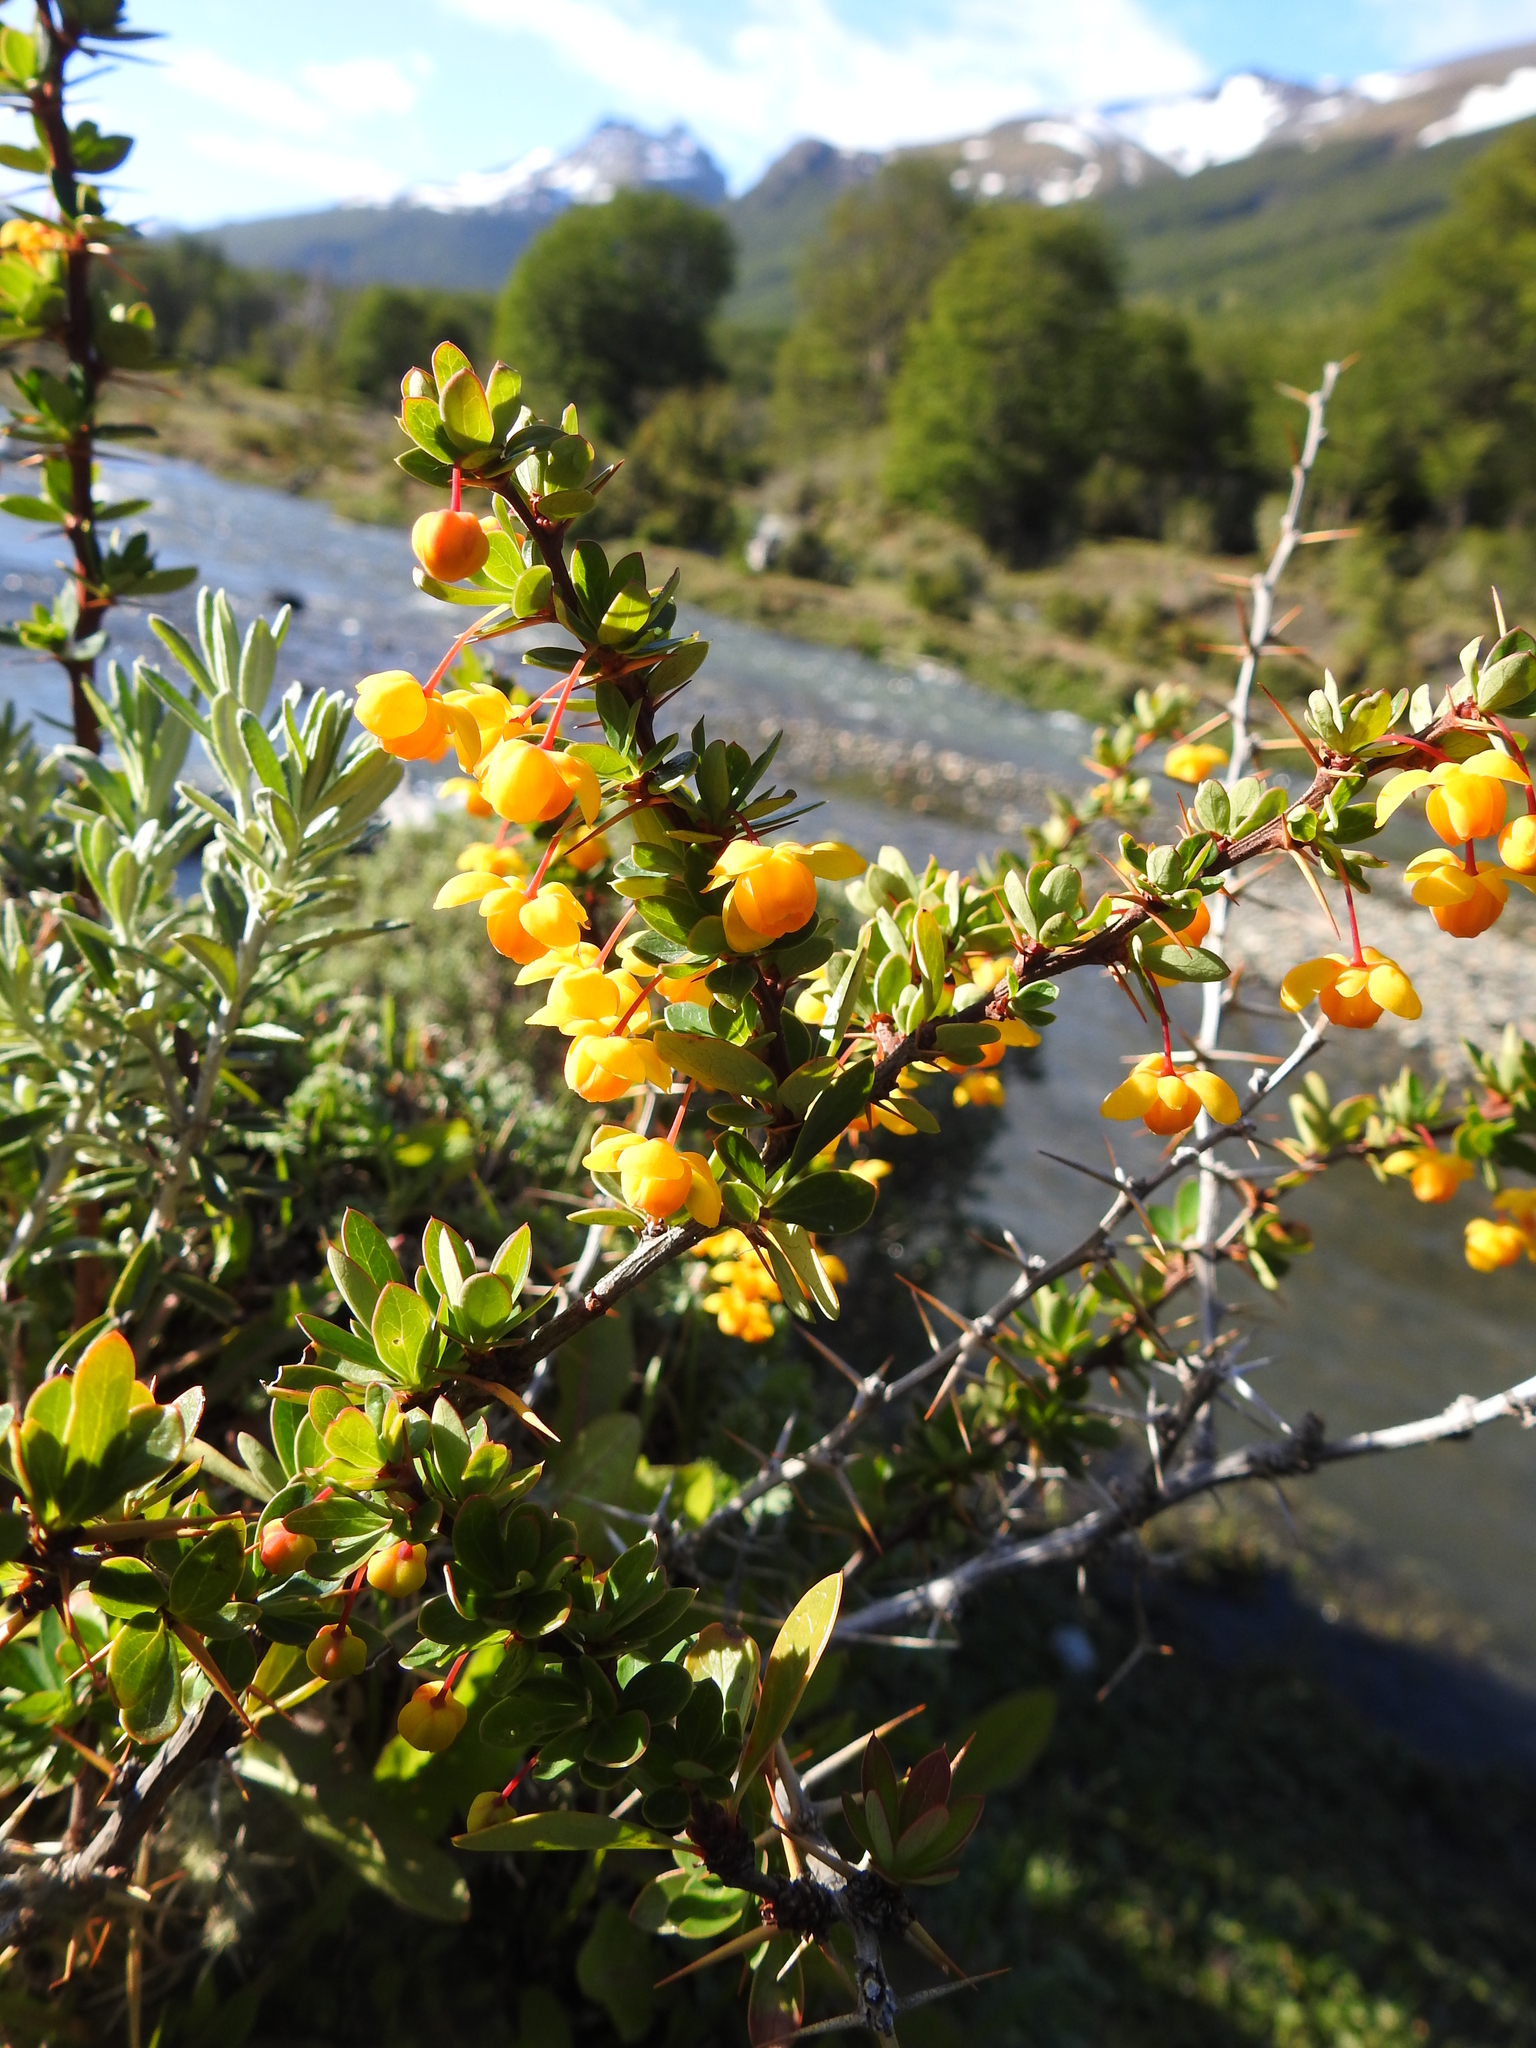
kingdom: Plantae
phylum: Tracheophyta
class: Magnoliopsida
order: Ranunculales
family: Berberidaceae
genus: Berberis
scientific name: Berberis microphylla
